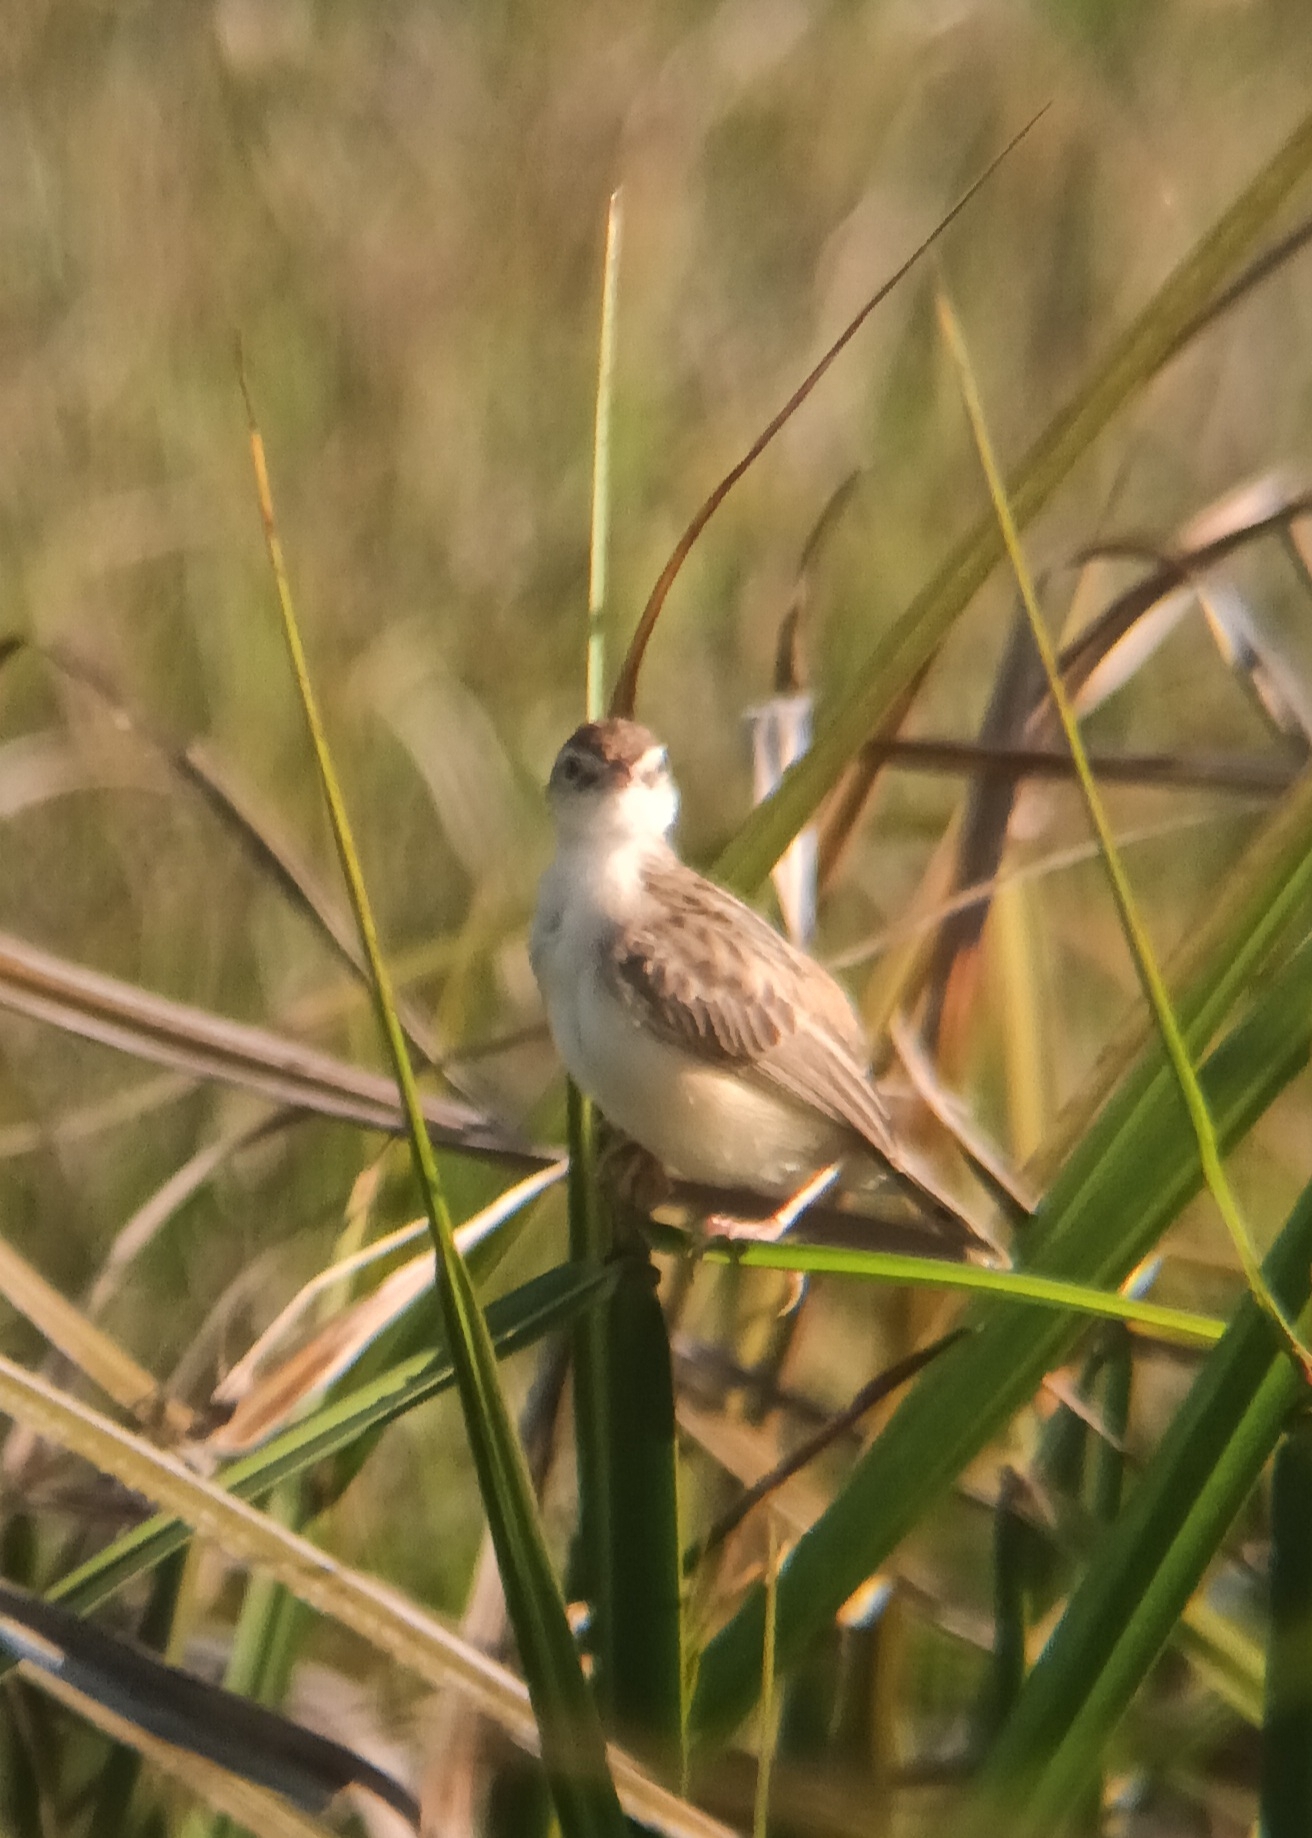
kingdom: Animalia
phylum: Chordata
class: Aves
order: Passeriformes
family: Cisticolidae
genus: Cisticola
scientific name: Cisticola juncidis
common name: Zitting cisticola
